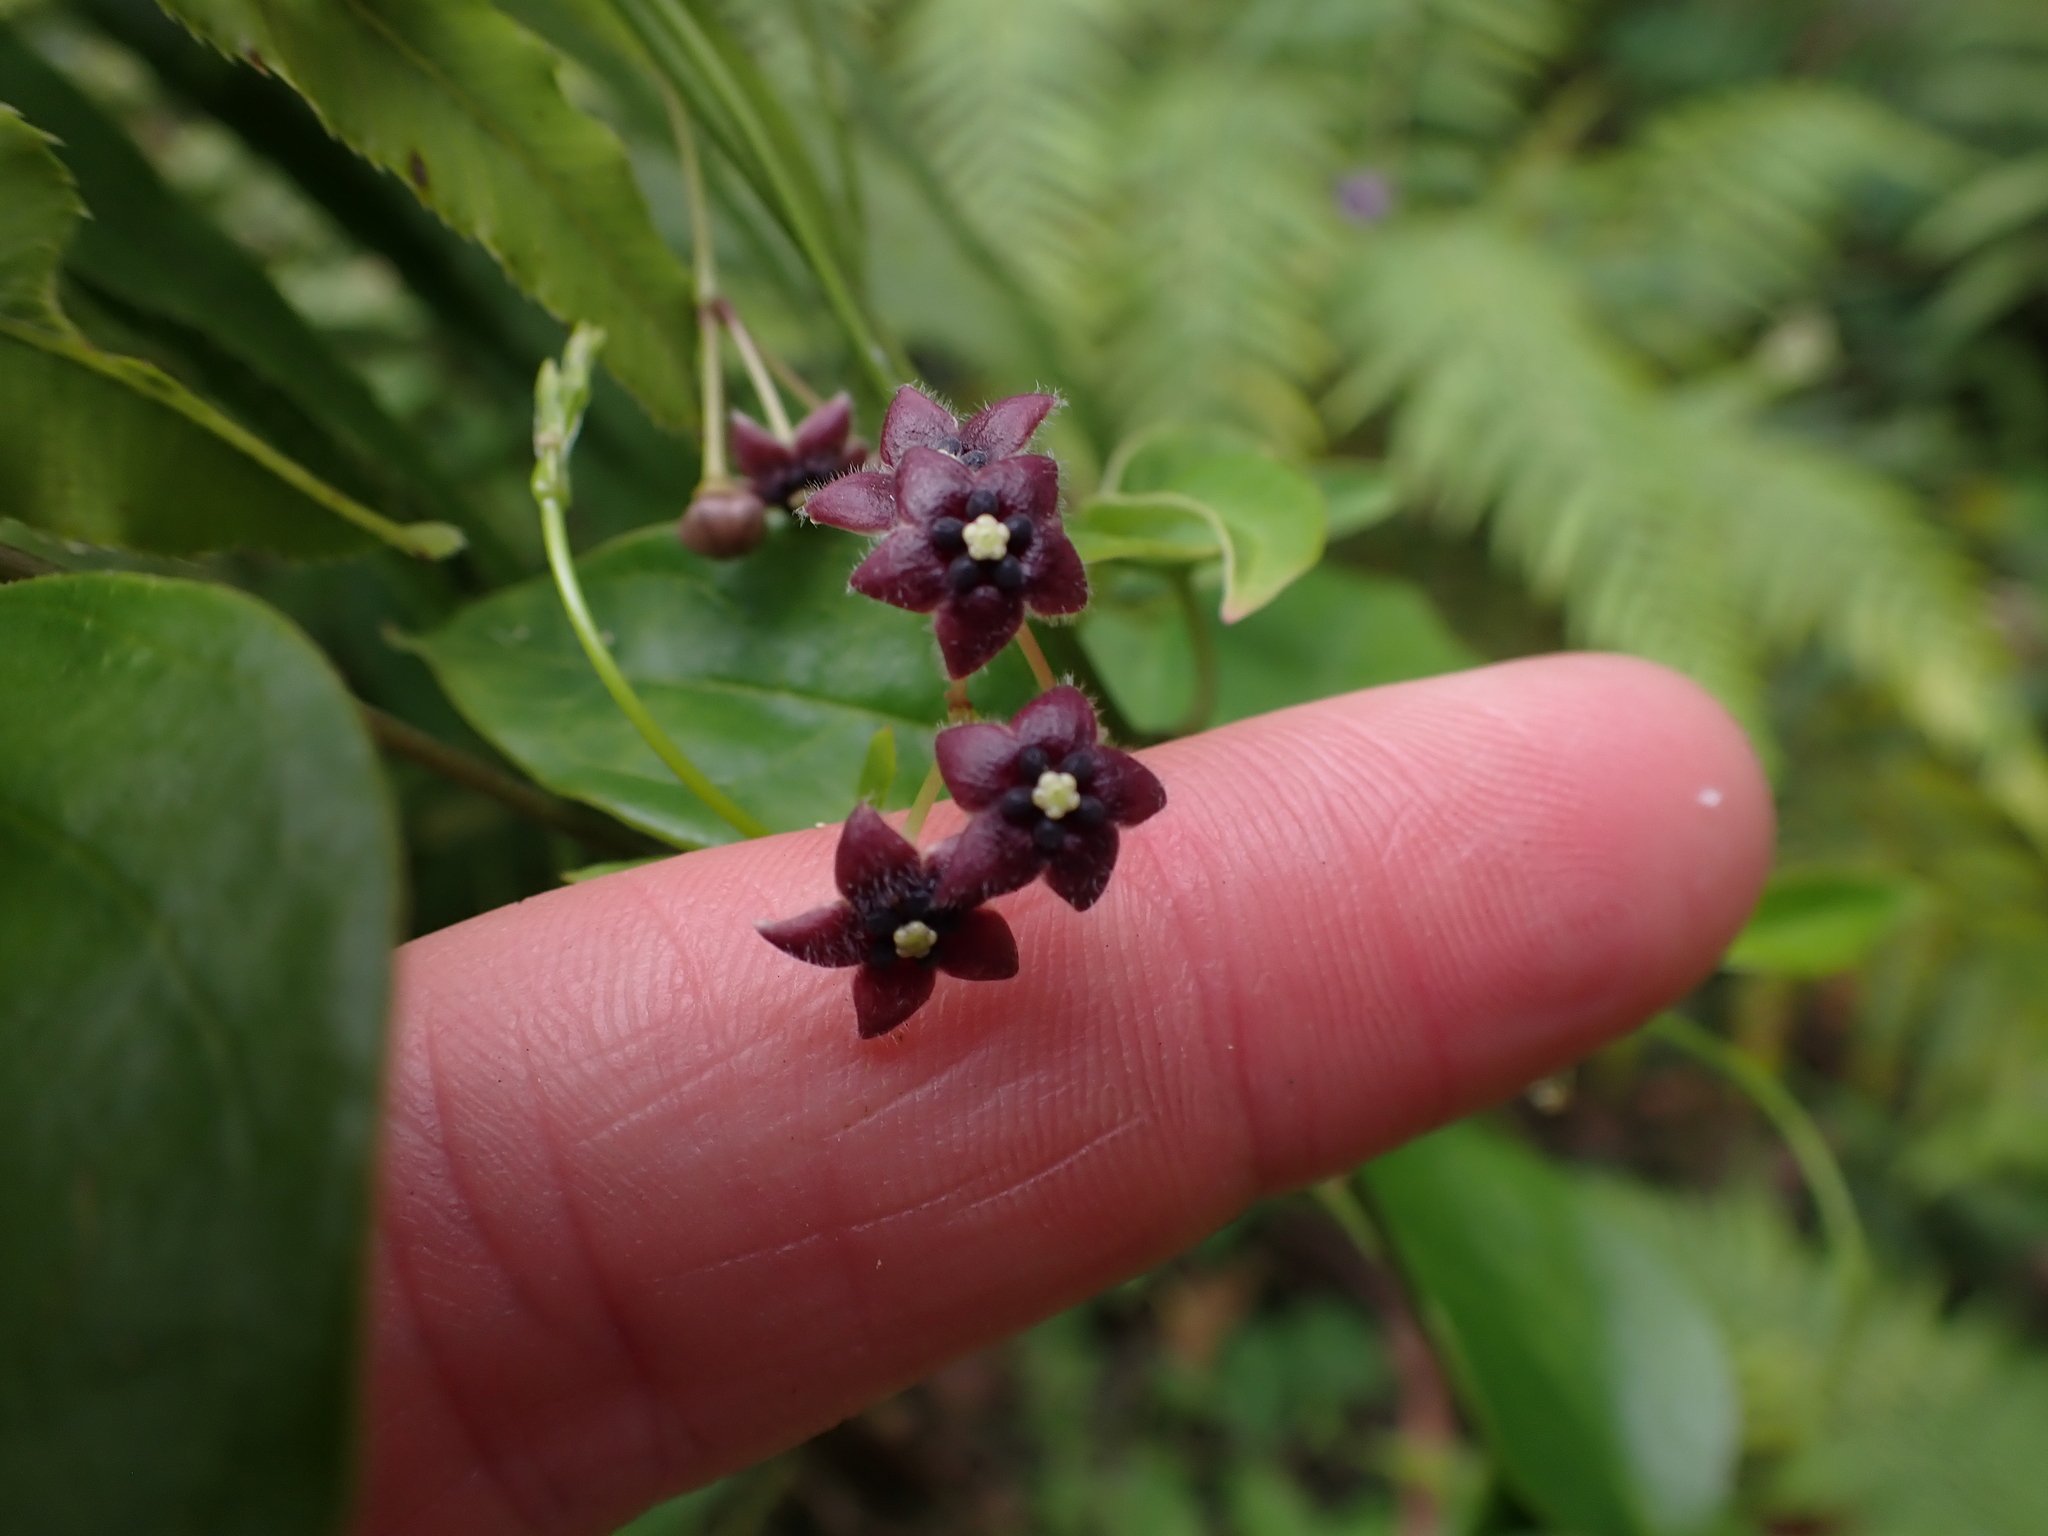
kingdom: Plantae
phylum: Tracheophyta
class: Magnoliopsida
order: Gentianales
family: Apocynaceae
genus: Vincetoxicum
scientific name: Vincetoxicum barbatum
